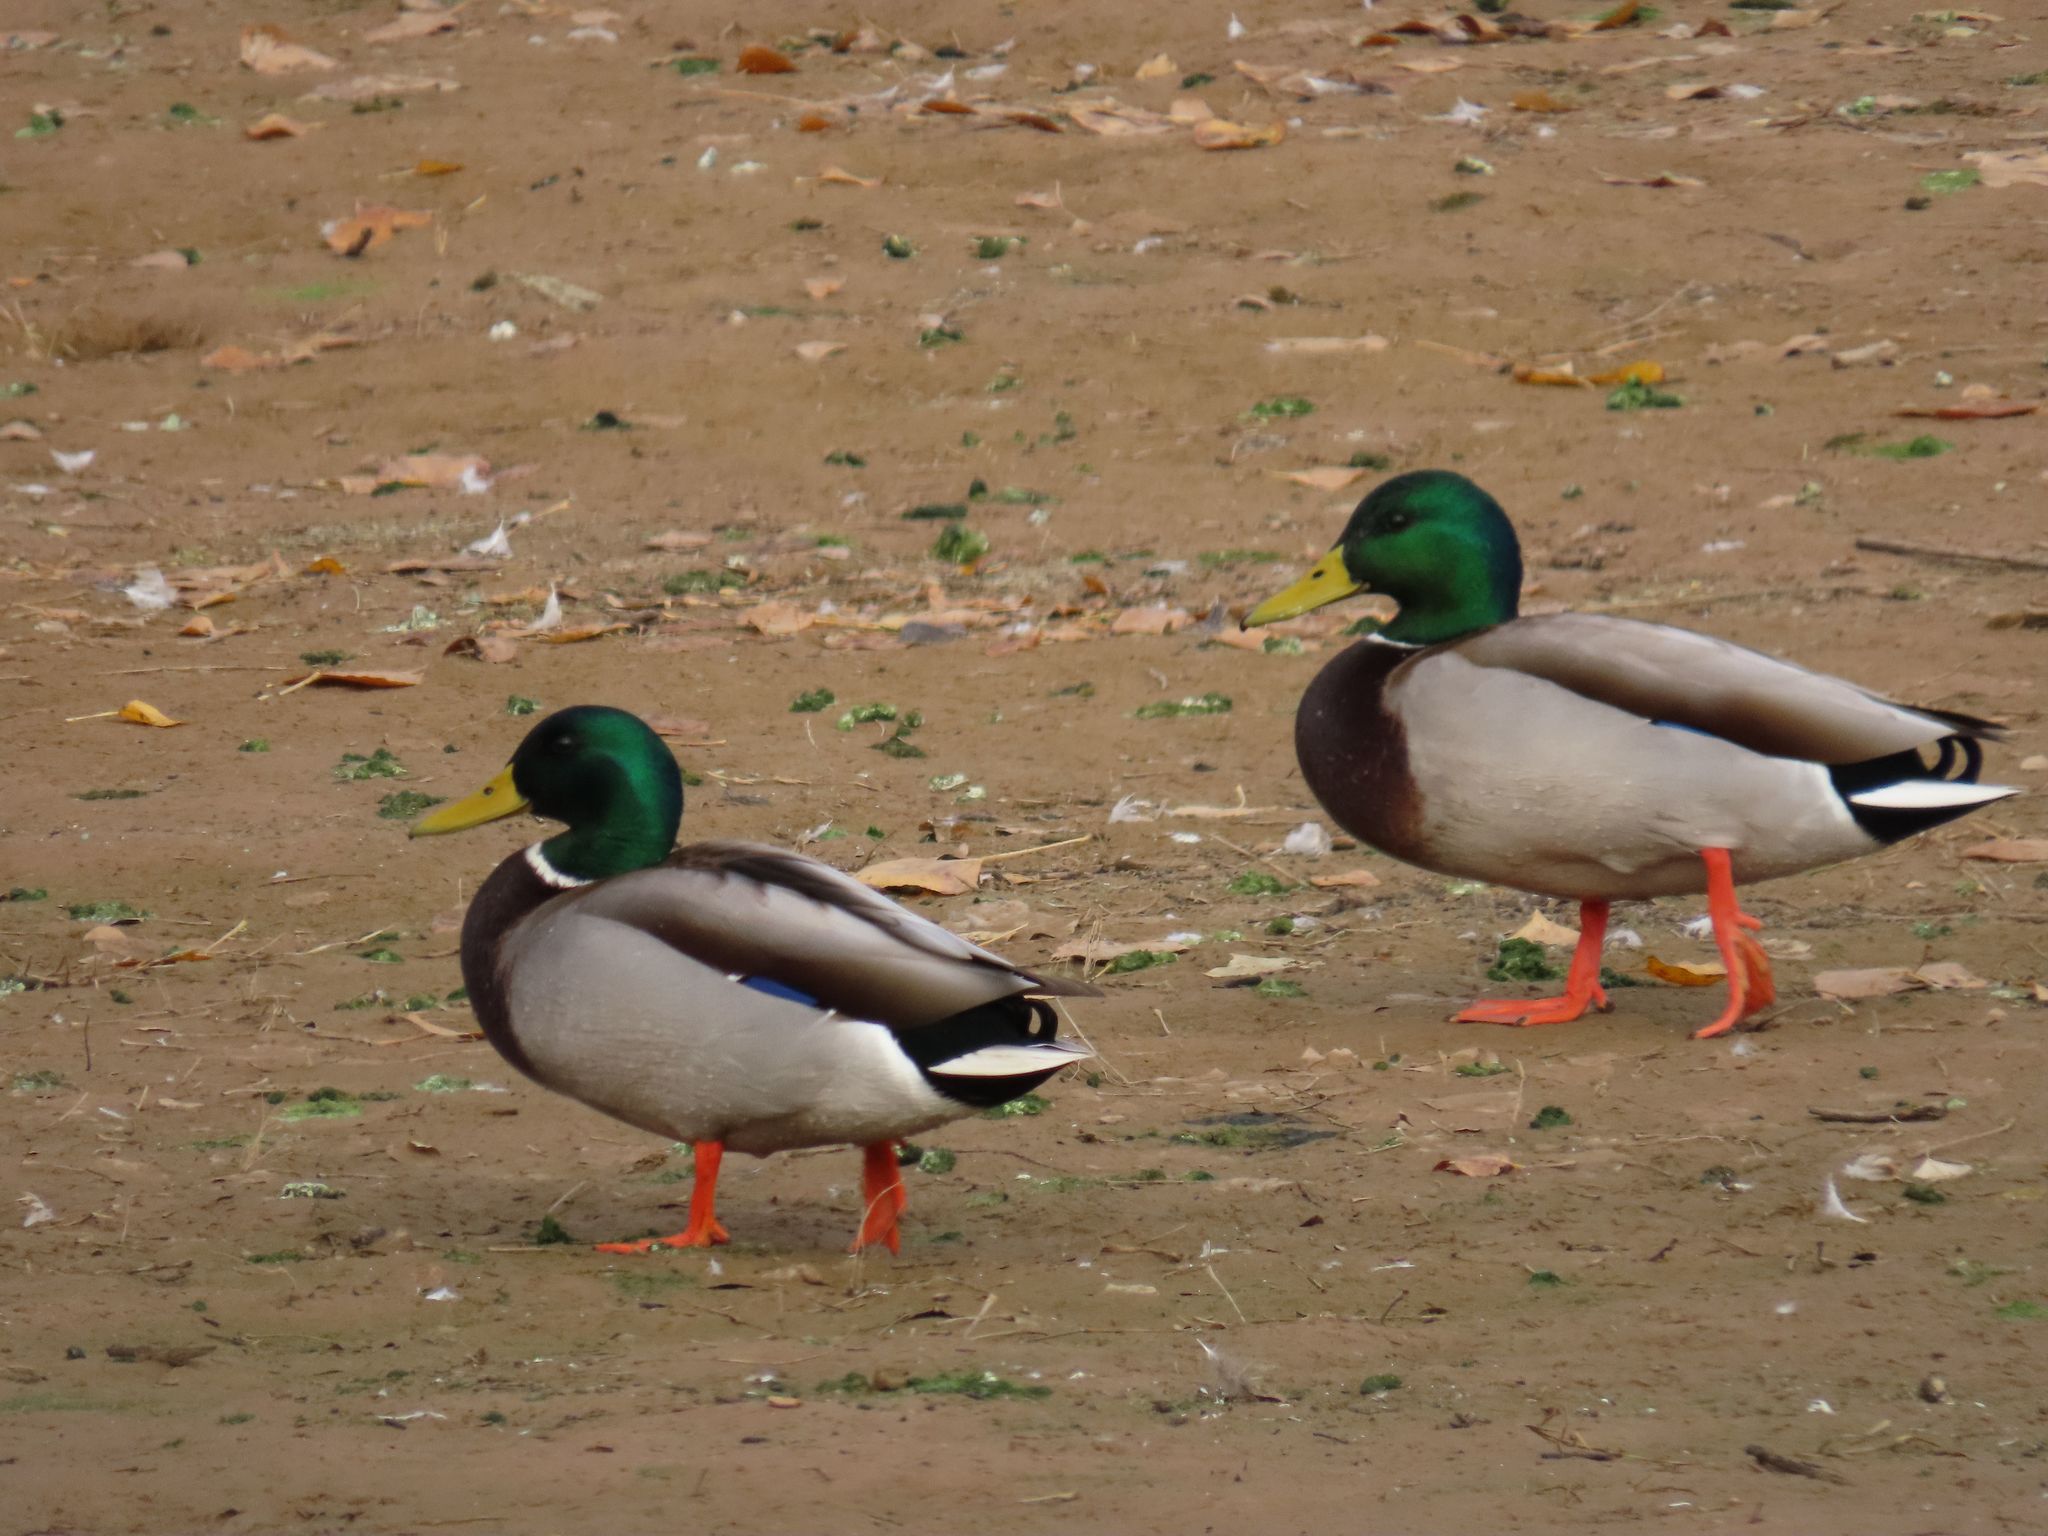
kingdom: Animalia
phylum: Chordata
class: Aves
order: Anseriformes
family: Anatidae
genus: Anas
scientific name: Anas platyrhynchos
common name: Mallard
